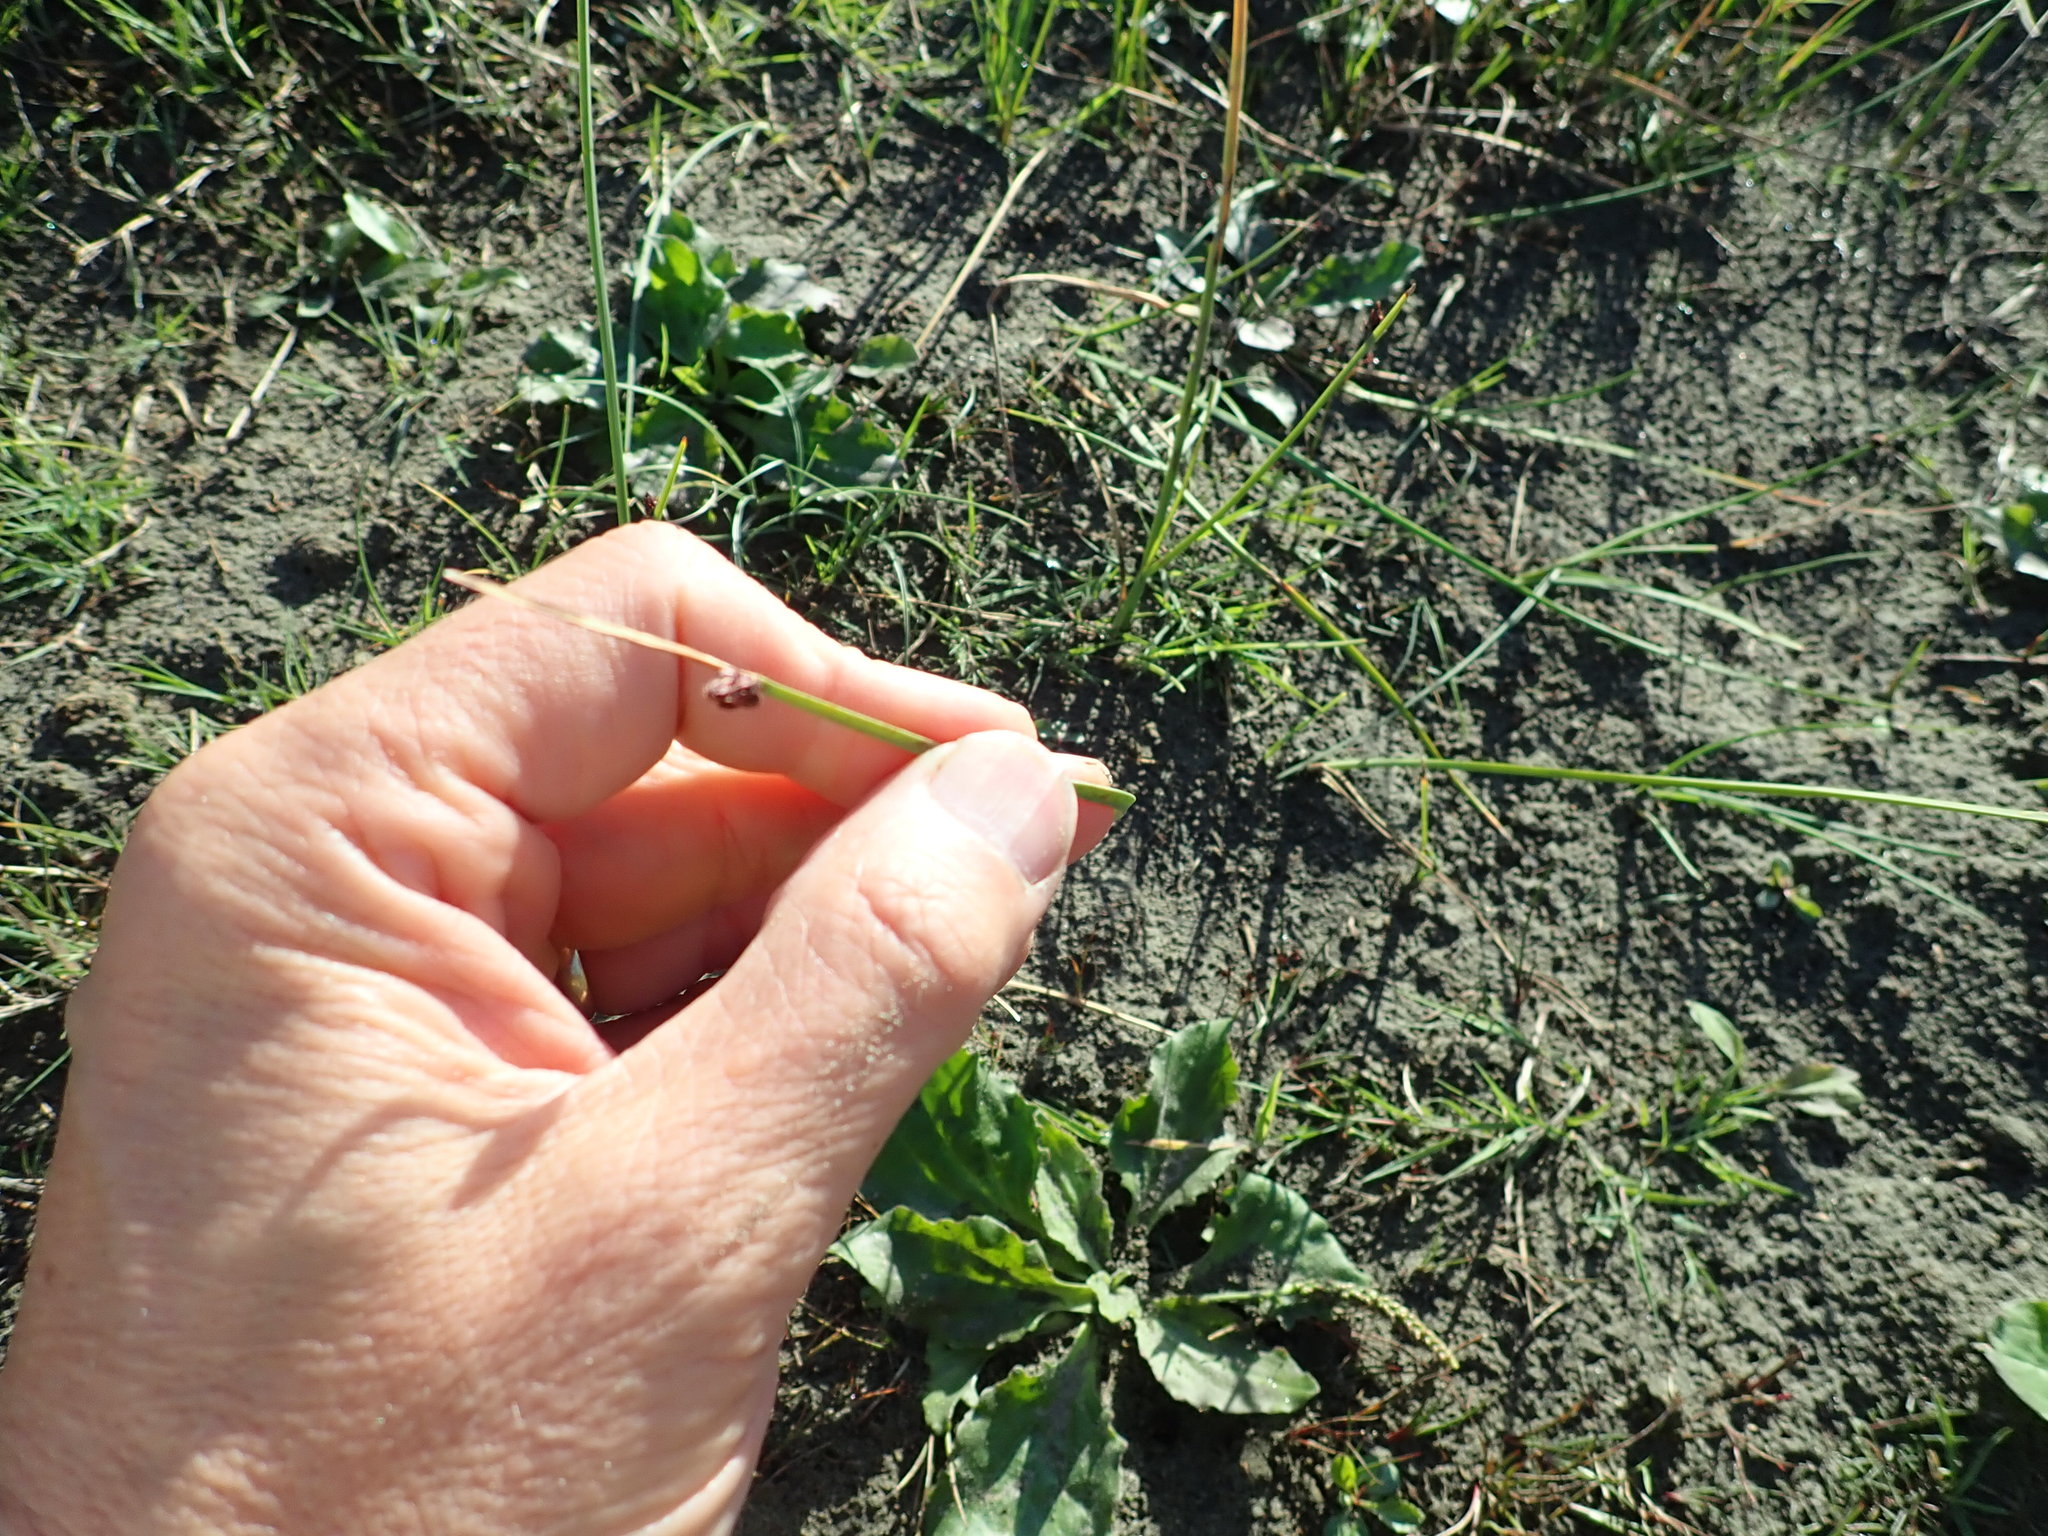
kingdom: Plantae
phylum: Tracheophyta
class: Liliopsida
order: Poales
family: Cyperaceae
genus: Schoenoplectus
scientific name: Schoenoplectus pungens
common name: Sharp club-rush
